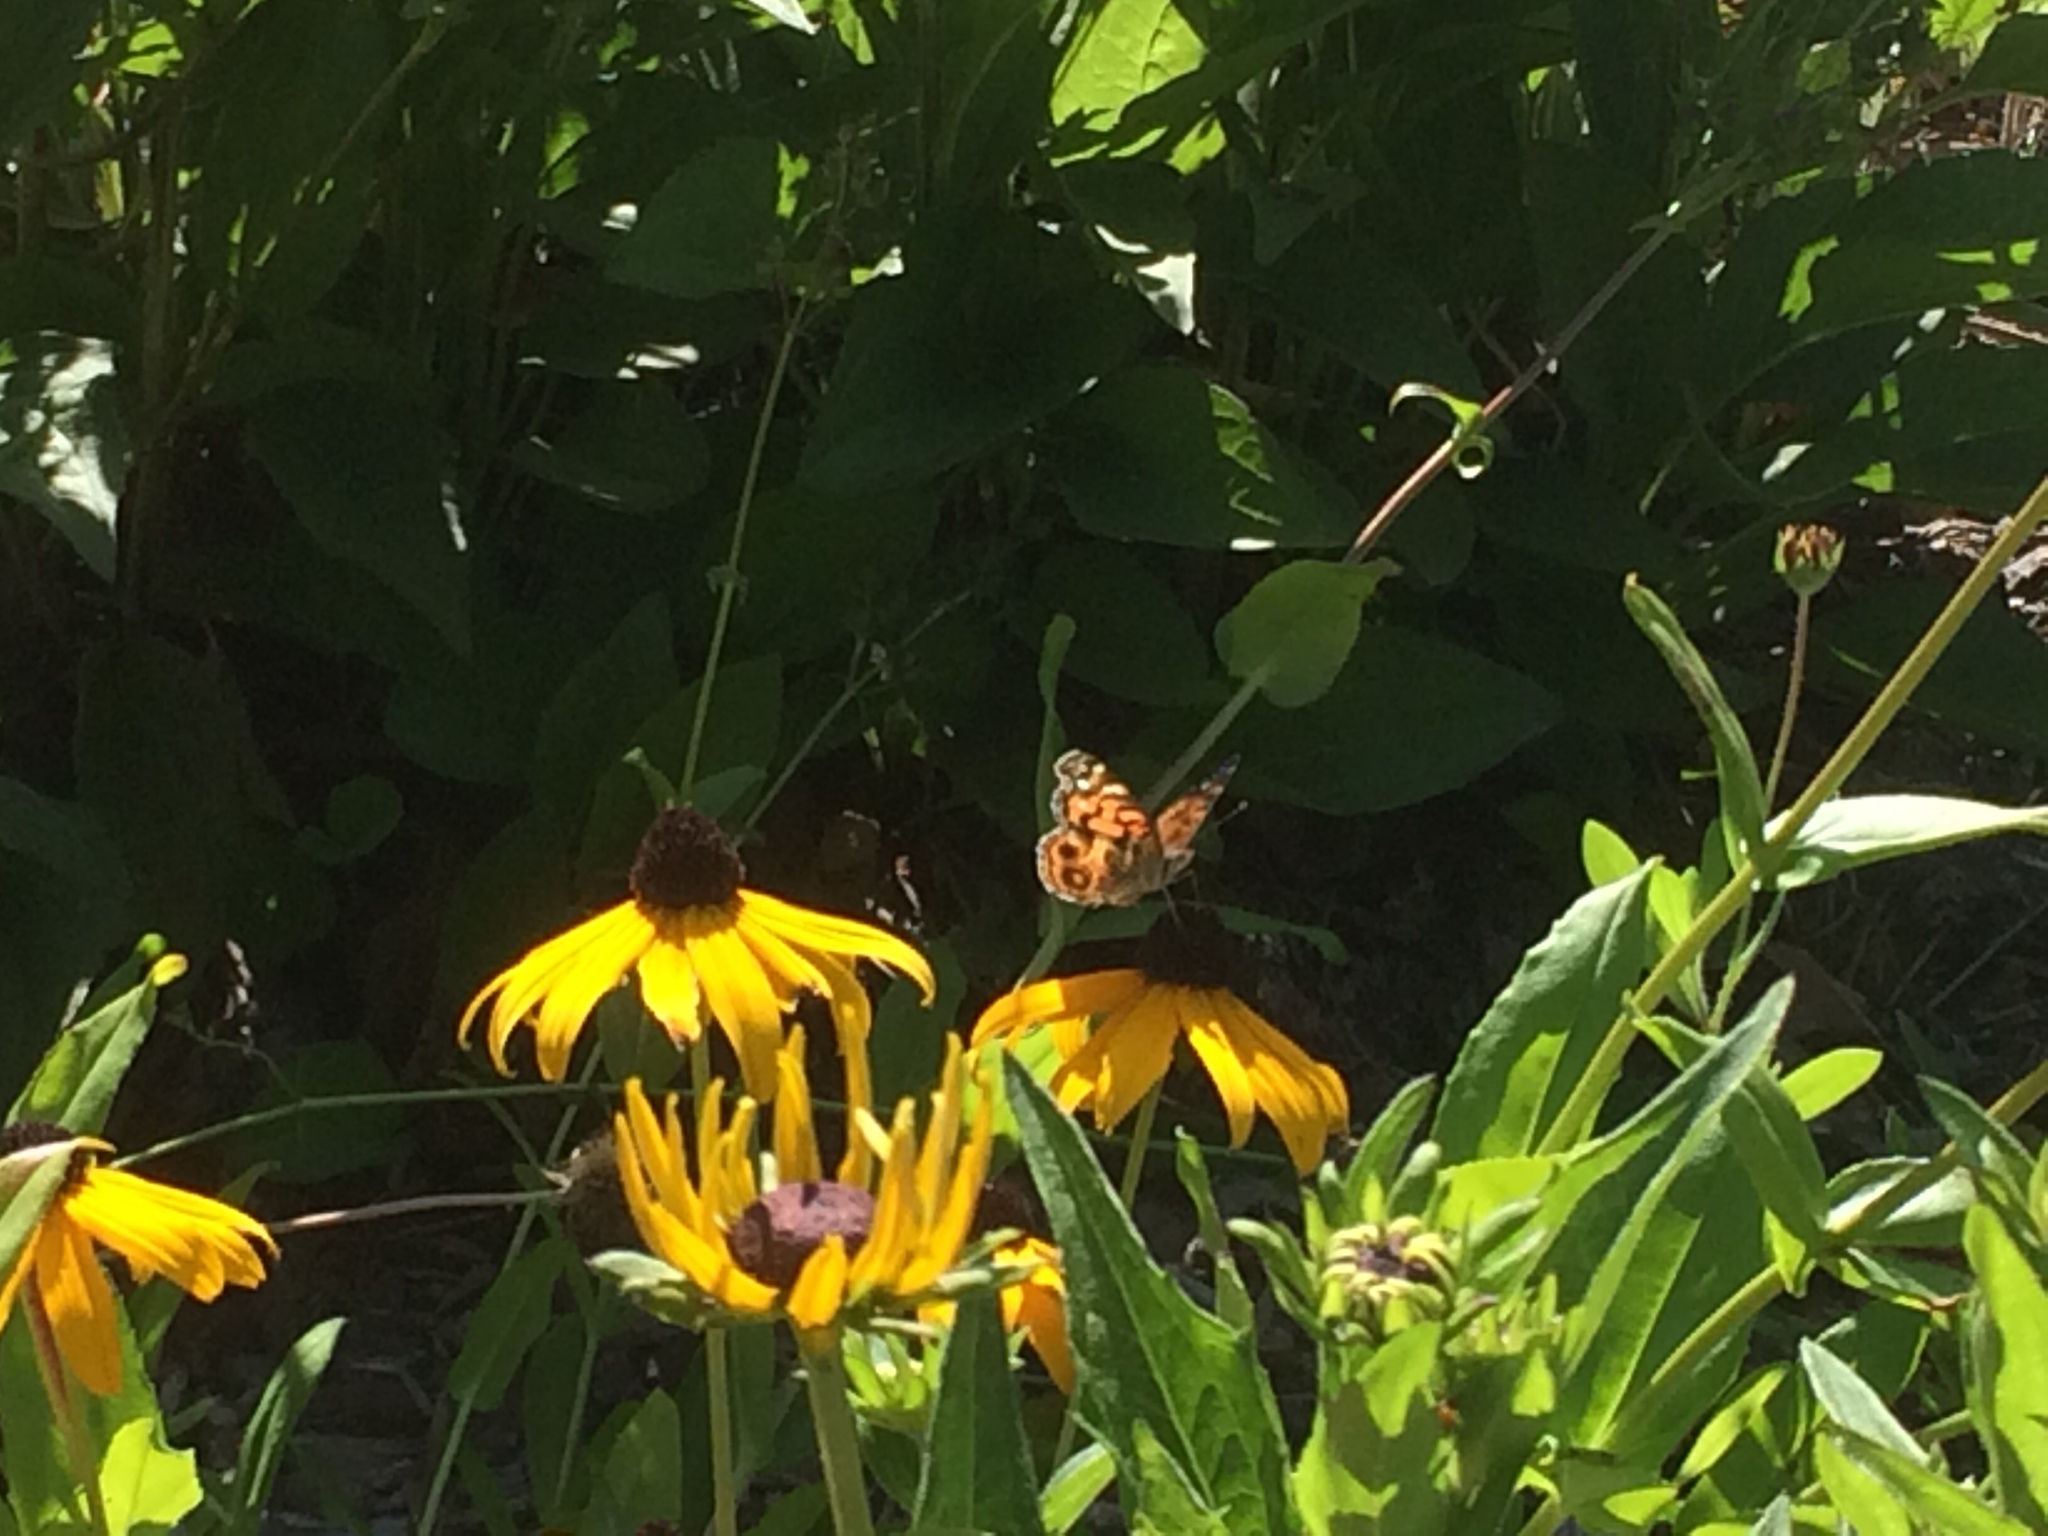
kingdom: Animalia
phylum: Arthropoda
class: Insecta
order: Lepidoptera
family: Nymphalidae
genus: Vanessa
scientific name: Vanessa virginiensis
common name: American lady
